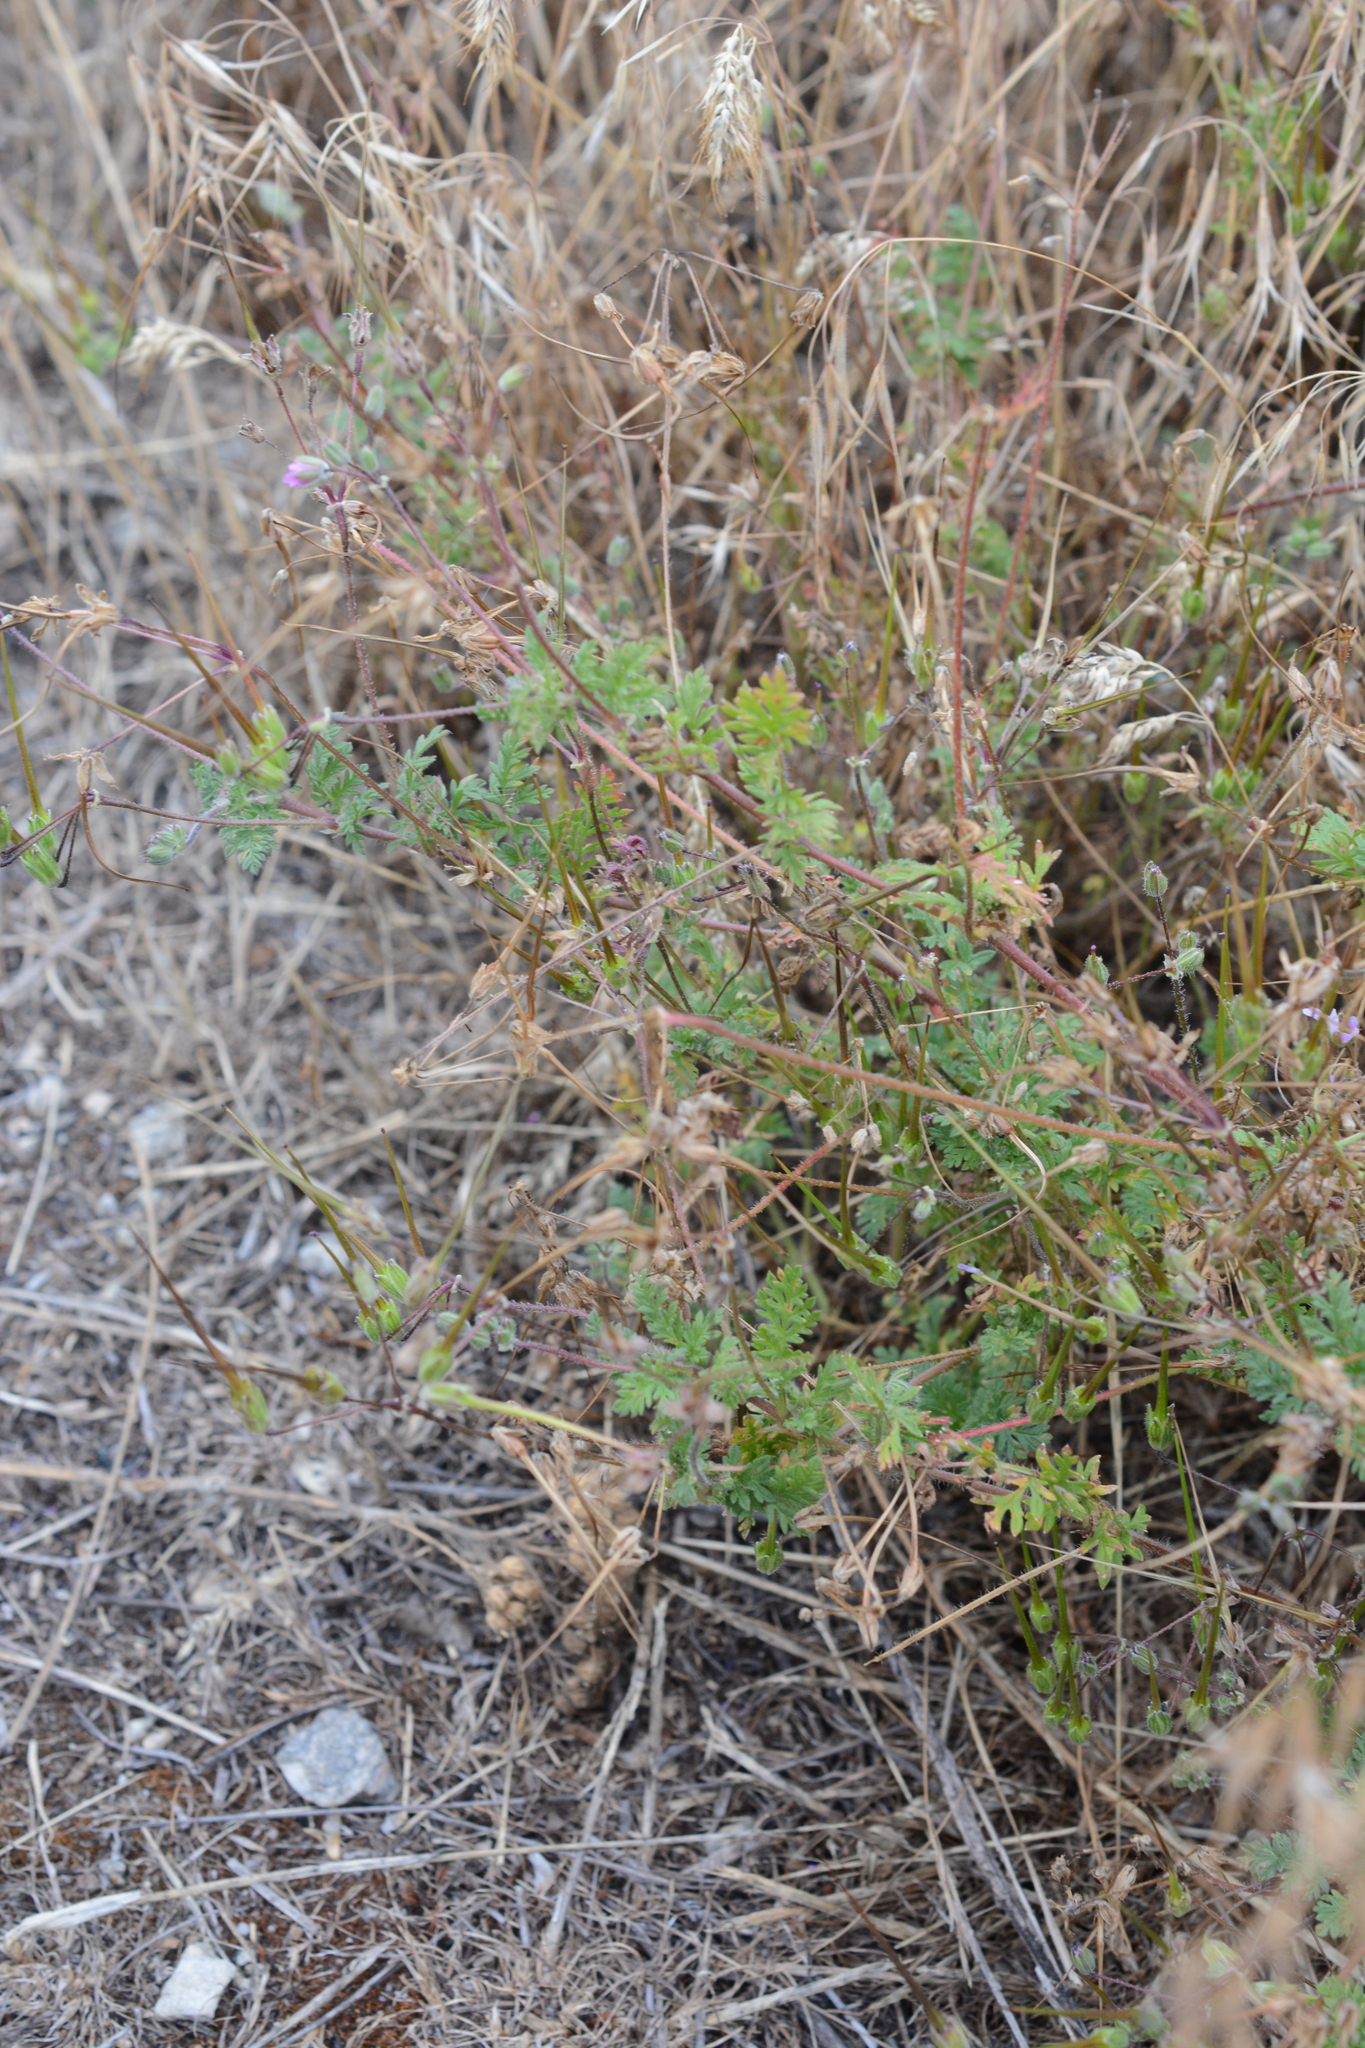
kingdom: Plantae
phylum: Tracheophyta
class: Magnoliopsida
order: Geraniales
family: Geraniaceae
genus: Erodium
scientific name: Erodium cicutarium
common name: Common stork's-bill
